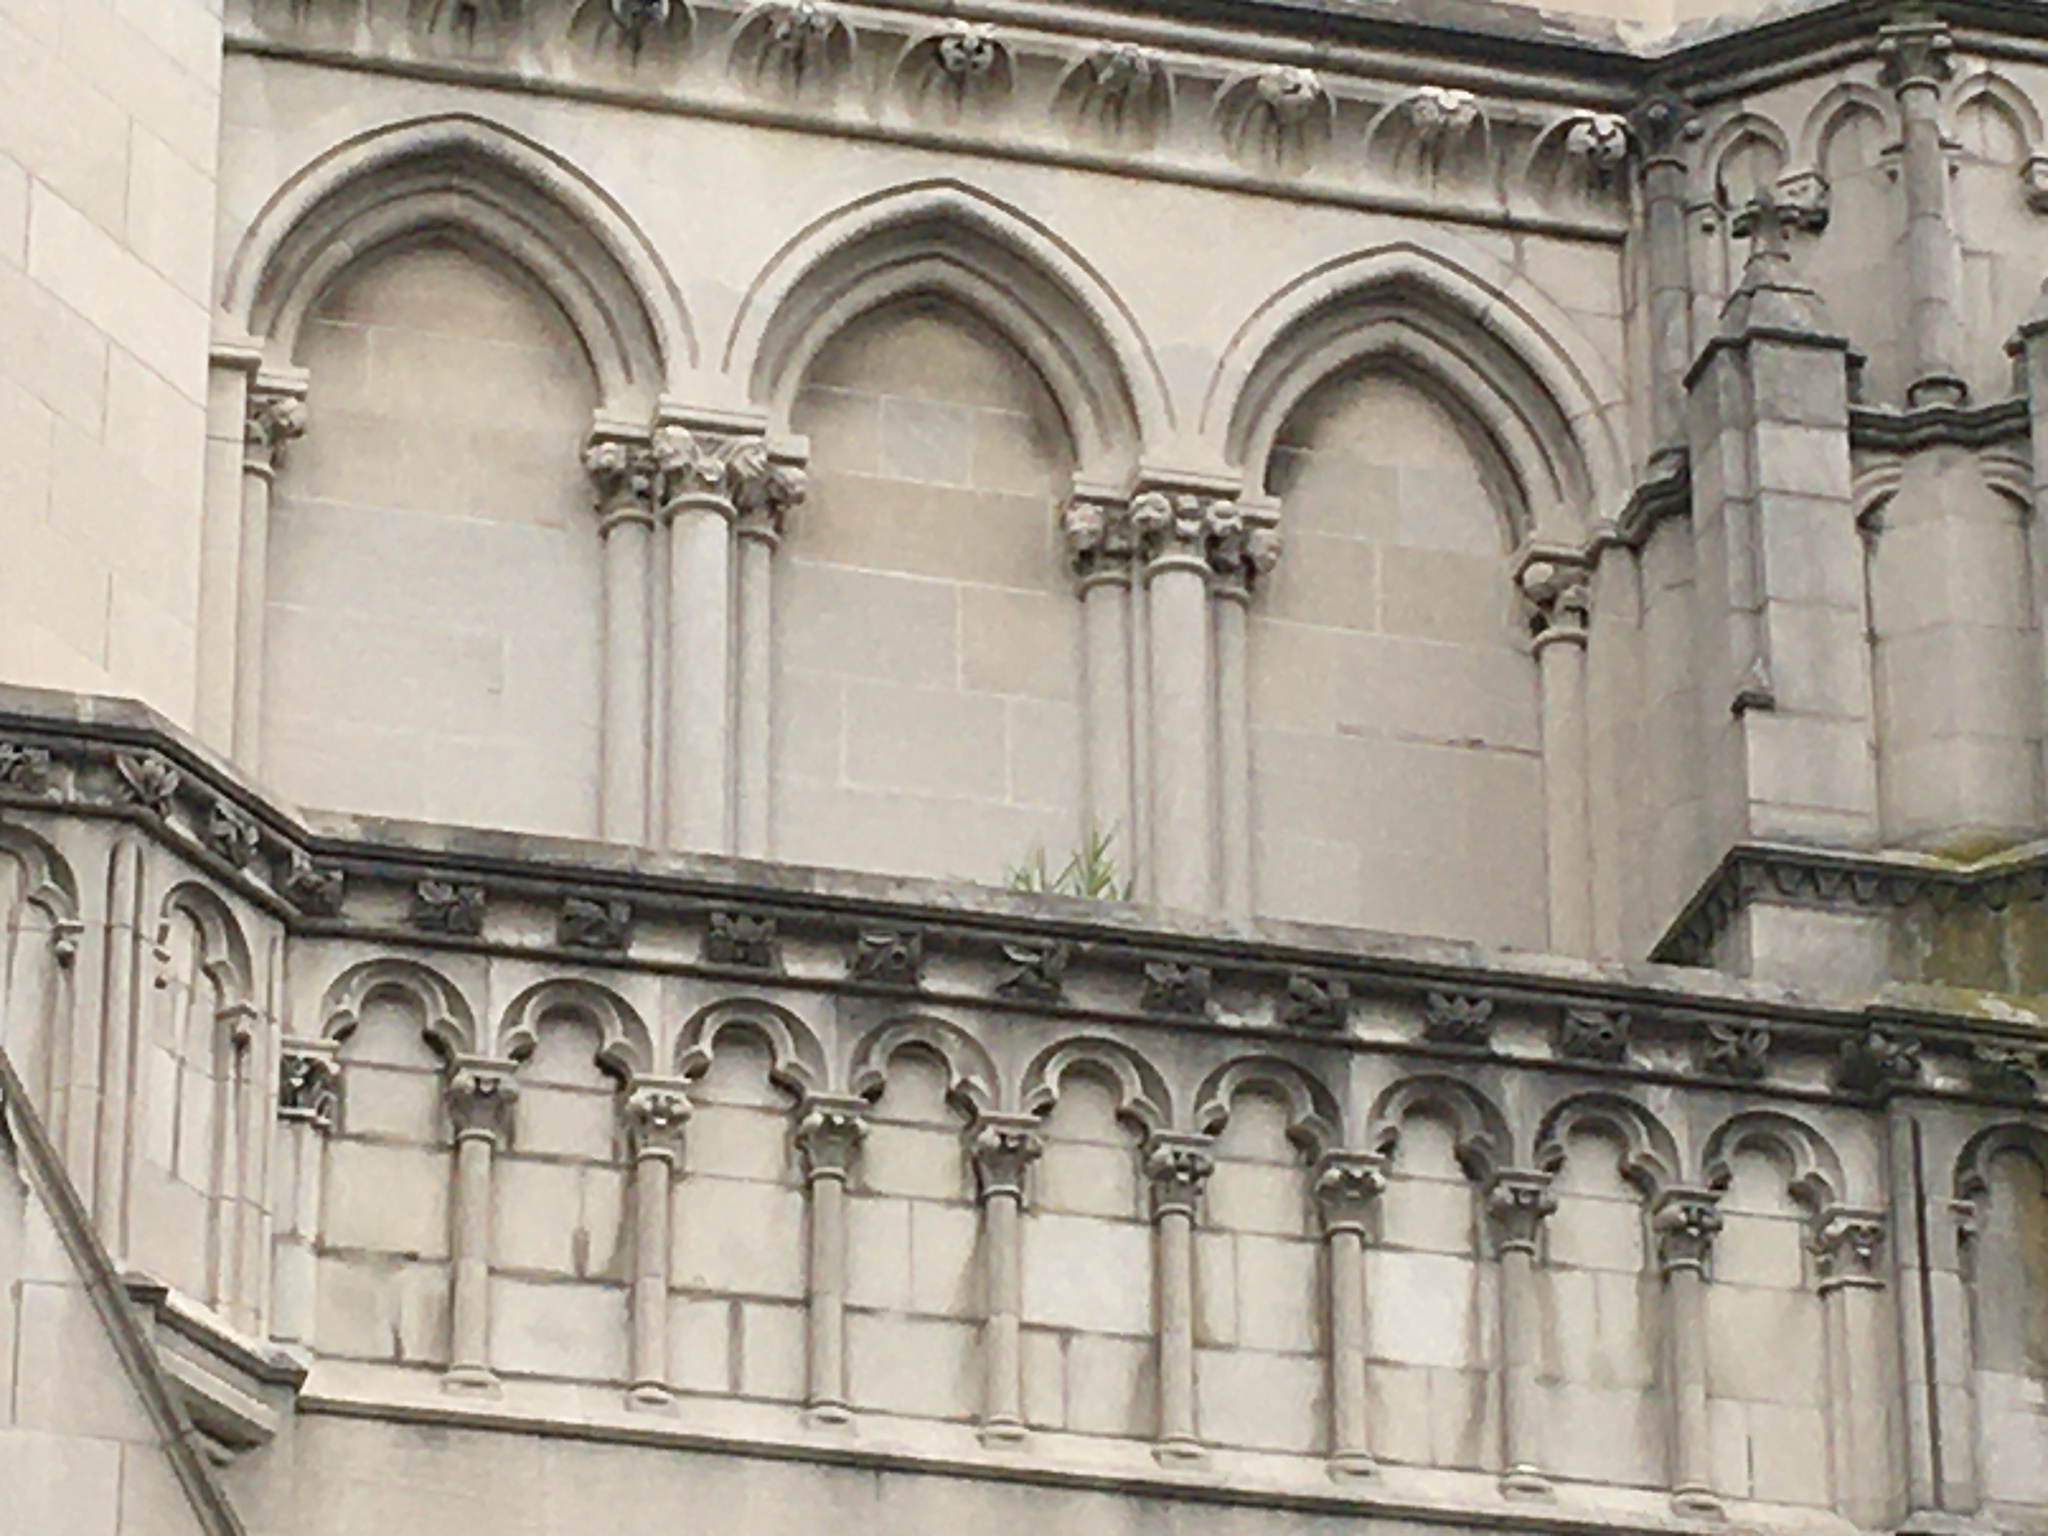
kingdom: Plantae
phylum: Tracheophyta
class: Liliopsida
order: Poales
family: Poaceae
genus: Phragmites
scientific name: Phragmites australis
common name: Common reed
